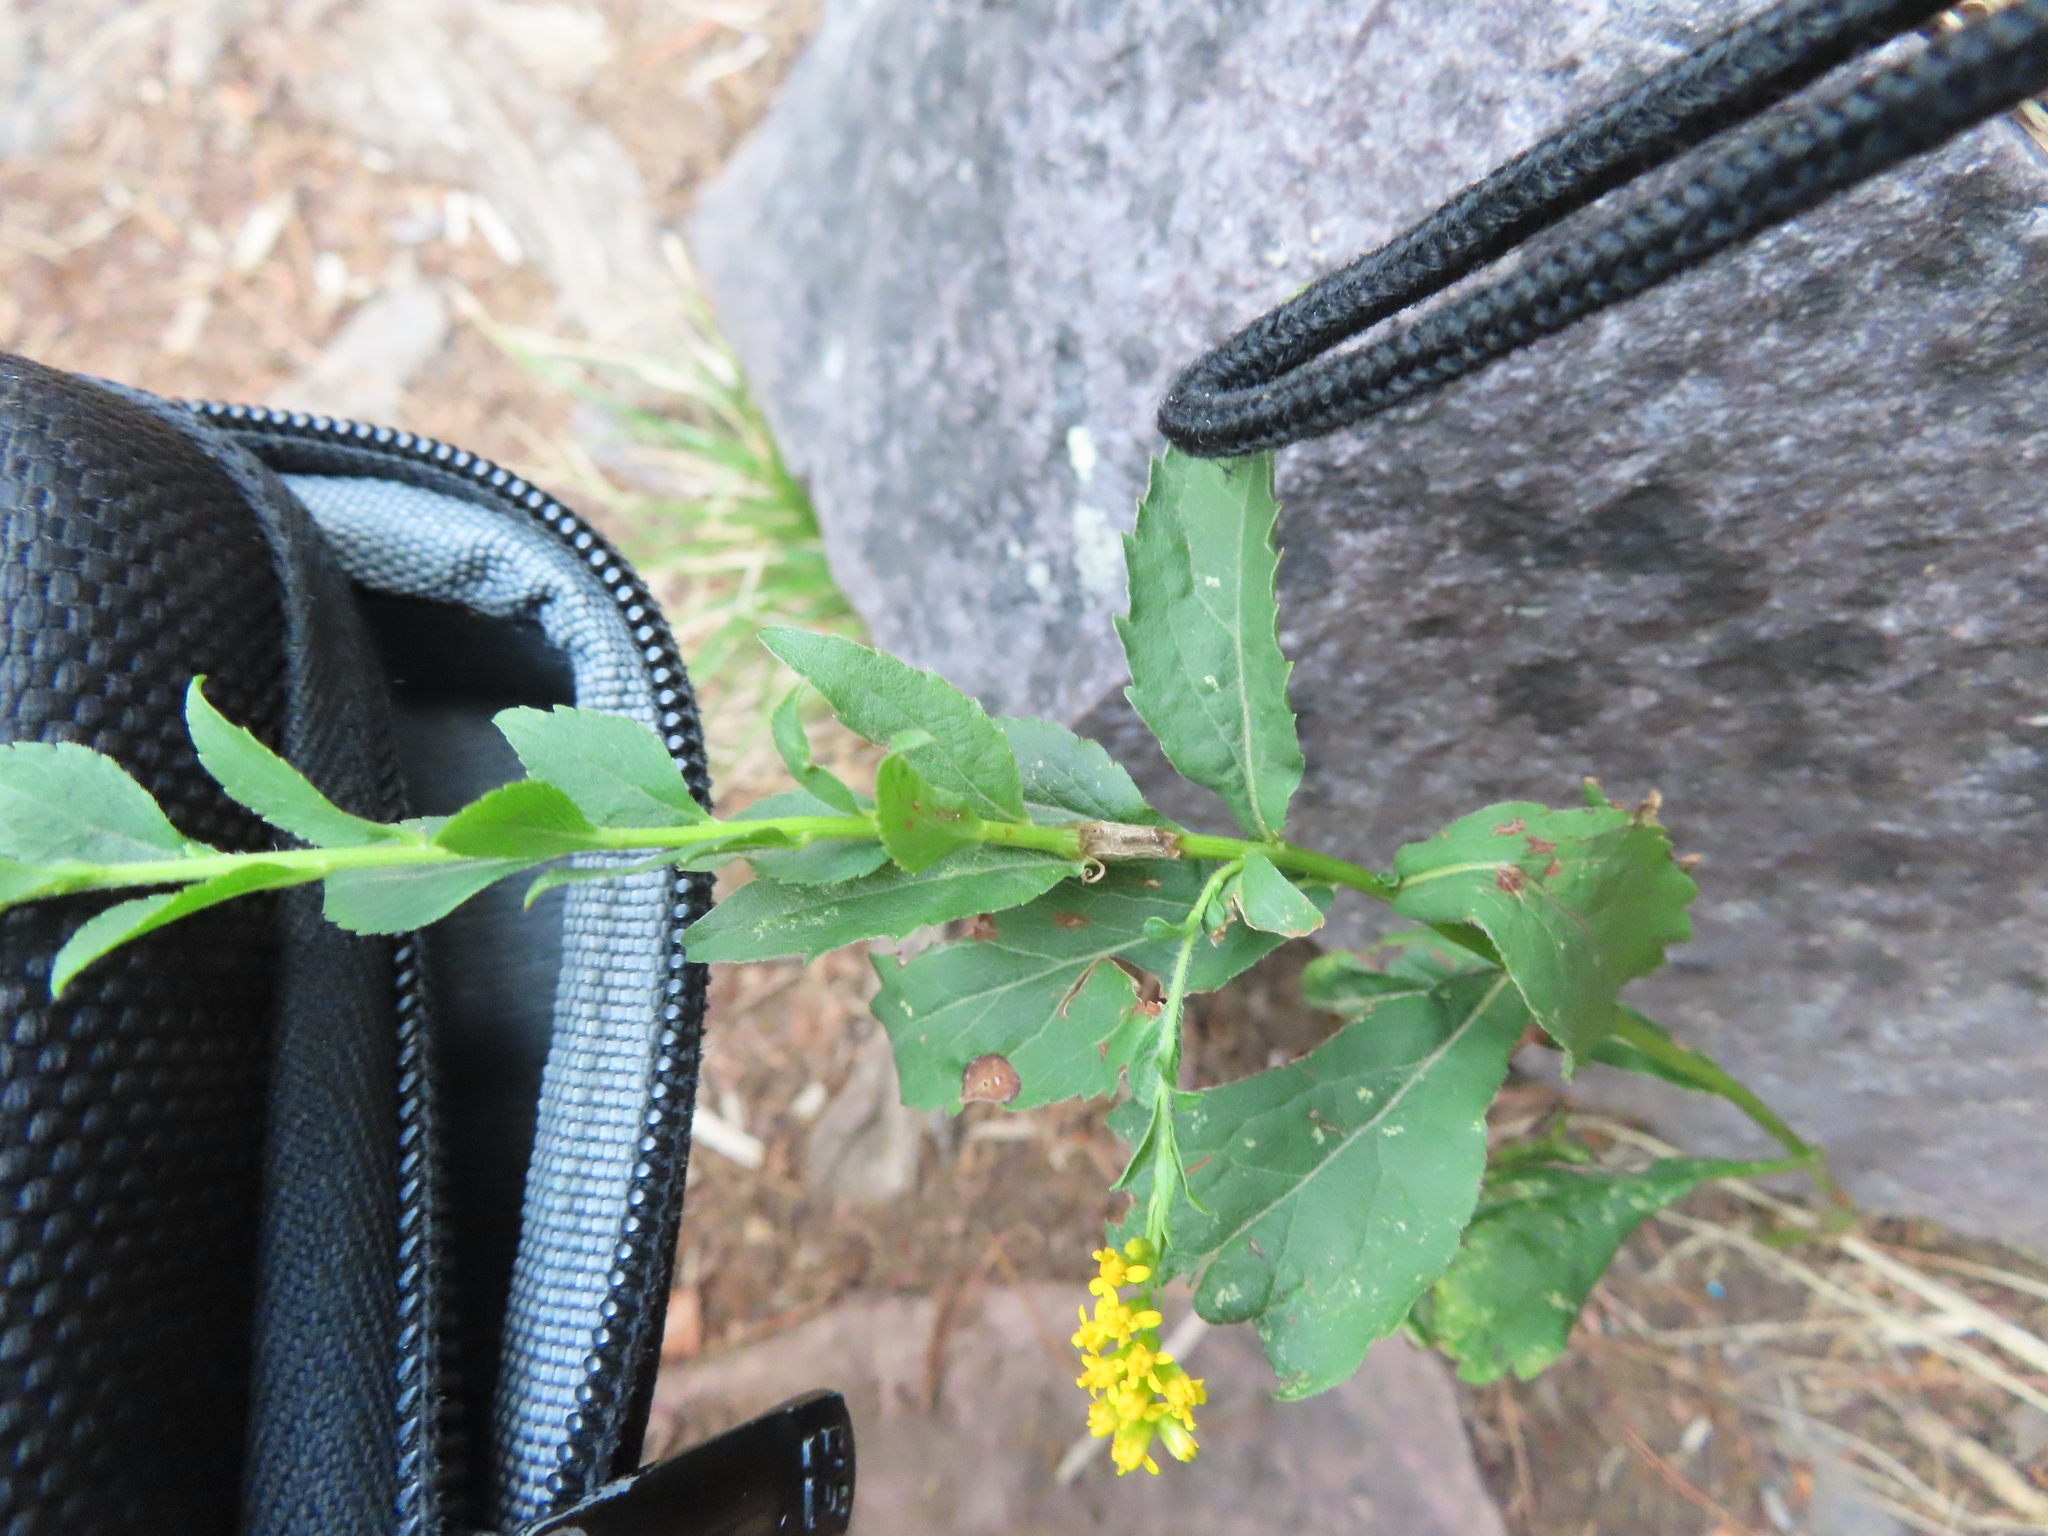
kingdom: Plantae
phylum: Tracheophyta
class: Magnoliopsida
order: Asterales
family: Asteraceae
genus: Solidago
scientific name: Solidago ulmifolia
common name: Elm-leaf goldenrod
